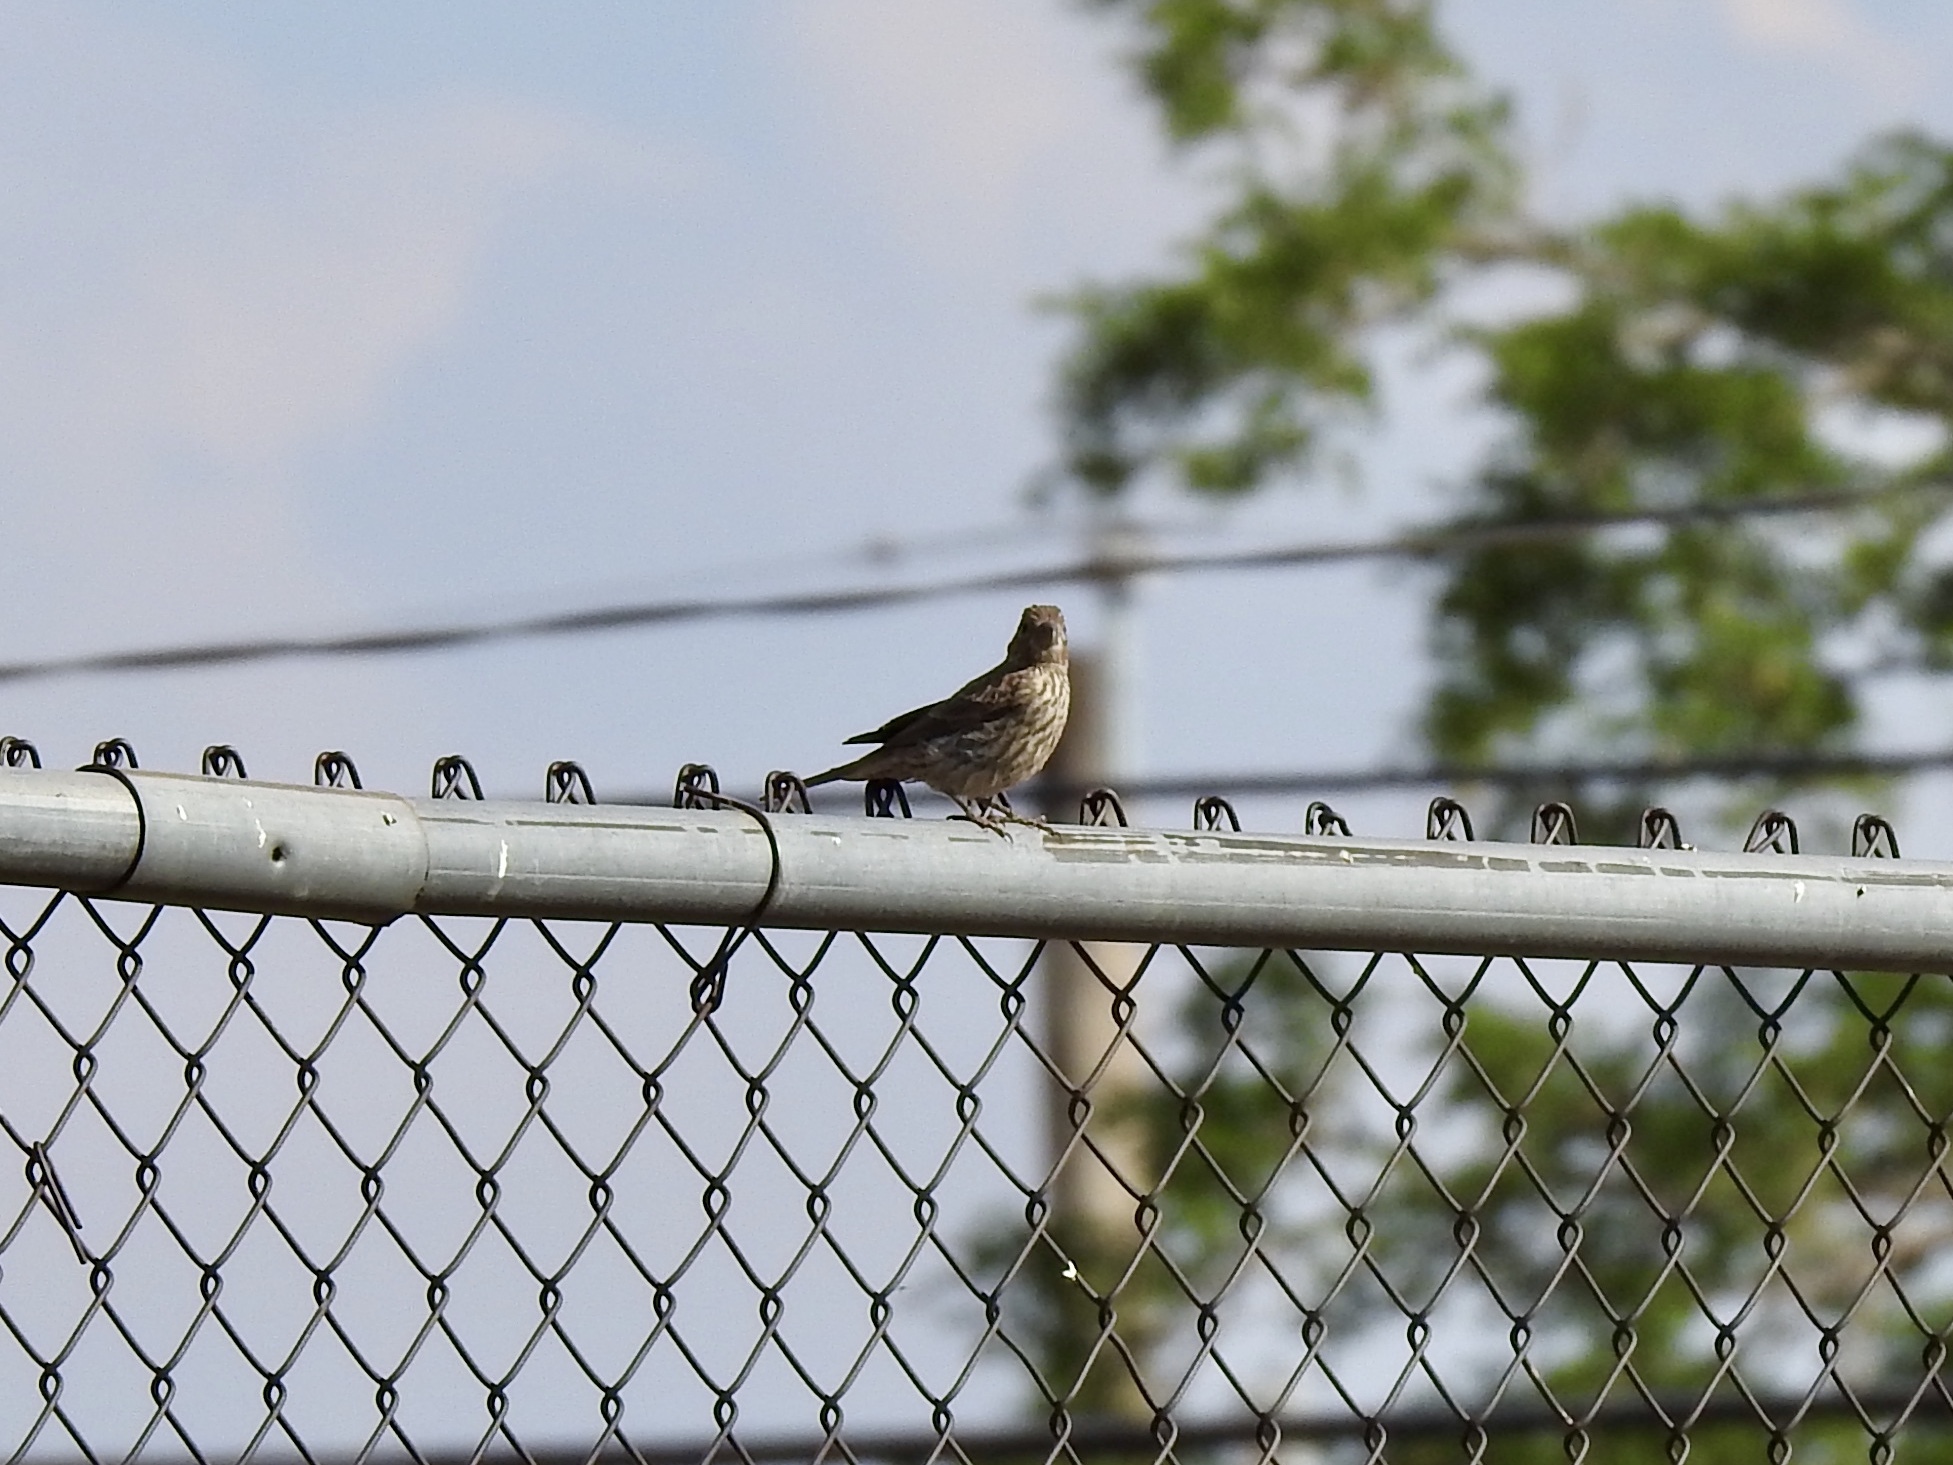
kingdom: Animalia
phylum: Chordata
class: Aves
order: Passeriformes
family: Fringillidae
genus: Haemorhous
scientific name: Haemorhous mexicanus
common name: House finch
